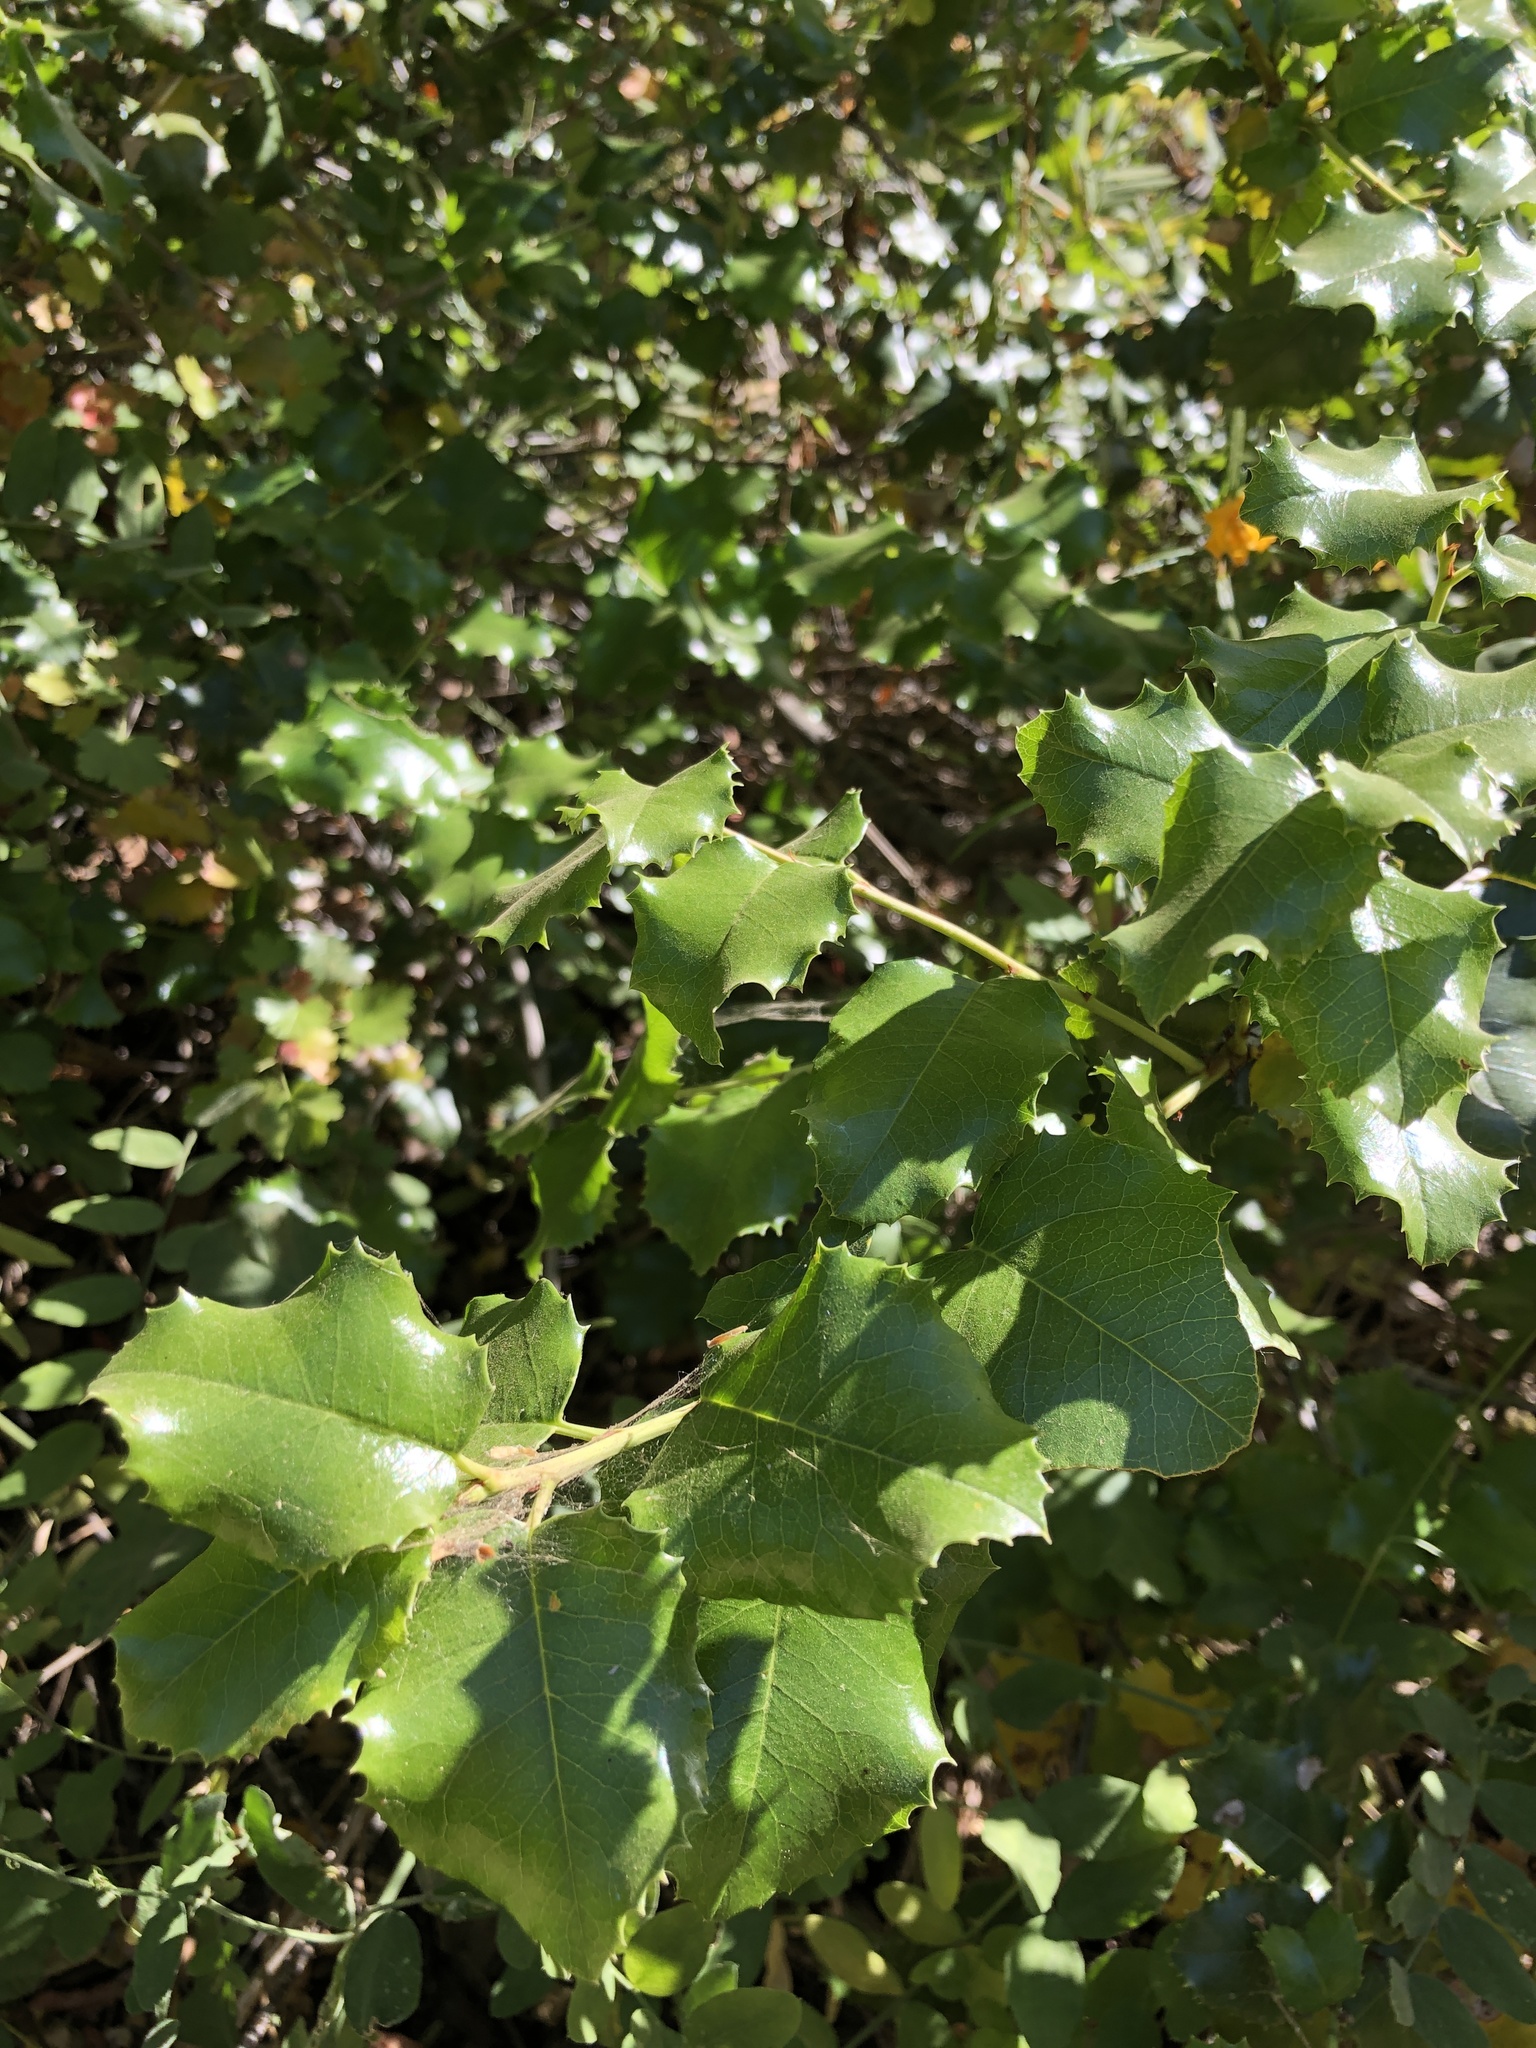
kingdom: Plantae
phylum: Tracheophyta
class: Magnoliopsida
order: Rosales
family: Rosaceae
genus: Prunus
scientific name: Prunus ilicifolia
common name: Hollyleaf cherry
